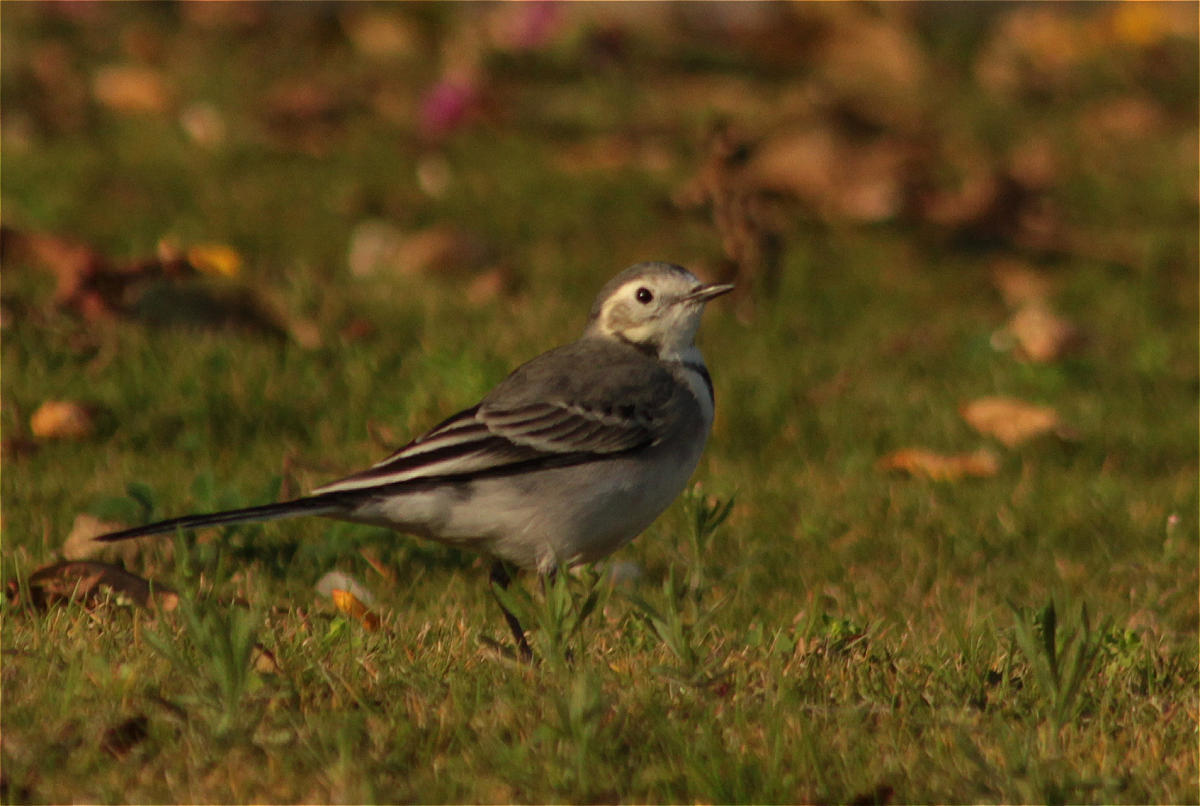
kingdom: Animalia
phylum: Chordata
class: Aves
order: Passeriformes
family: Motacillidae
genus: Motacilla
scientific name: Motacilla alba
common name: White wagtail
